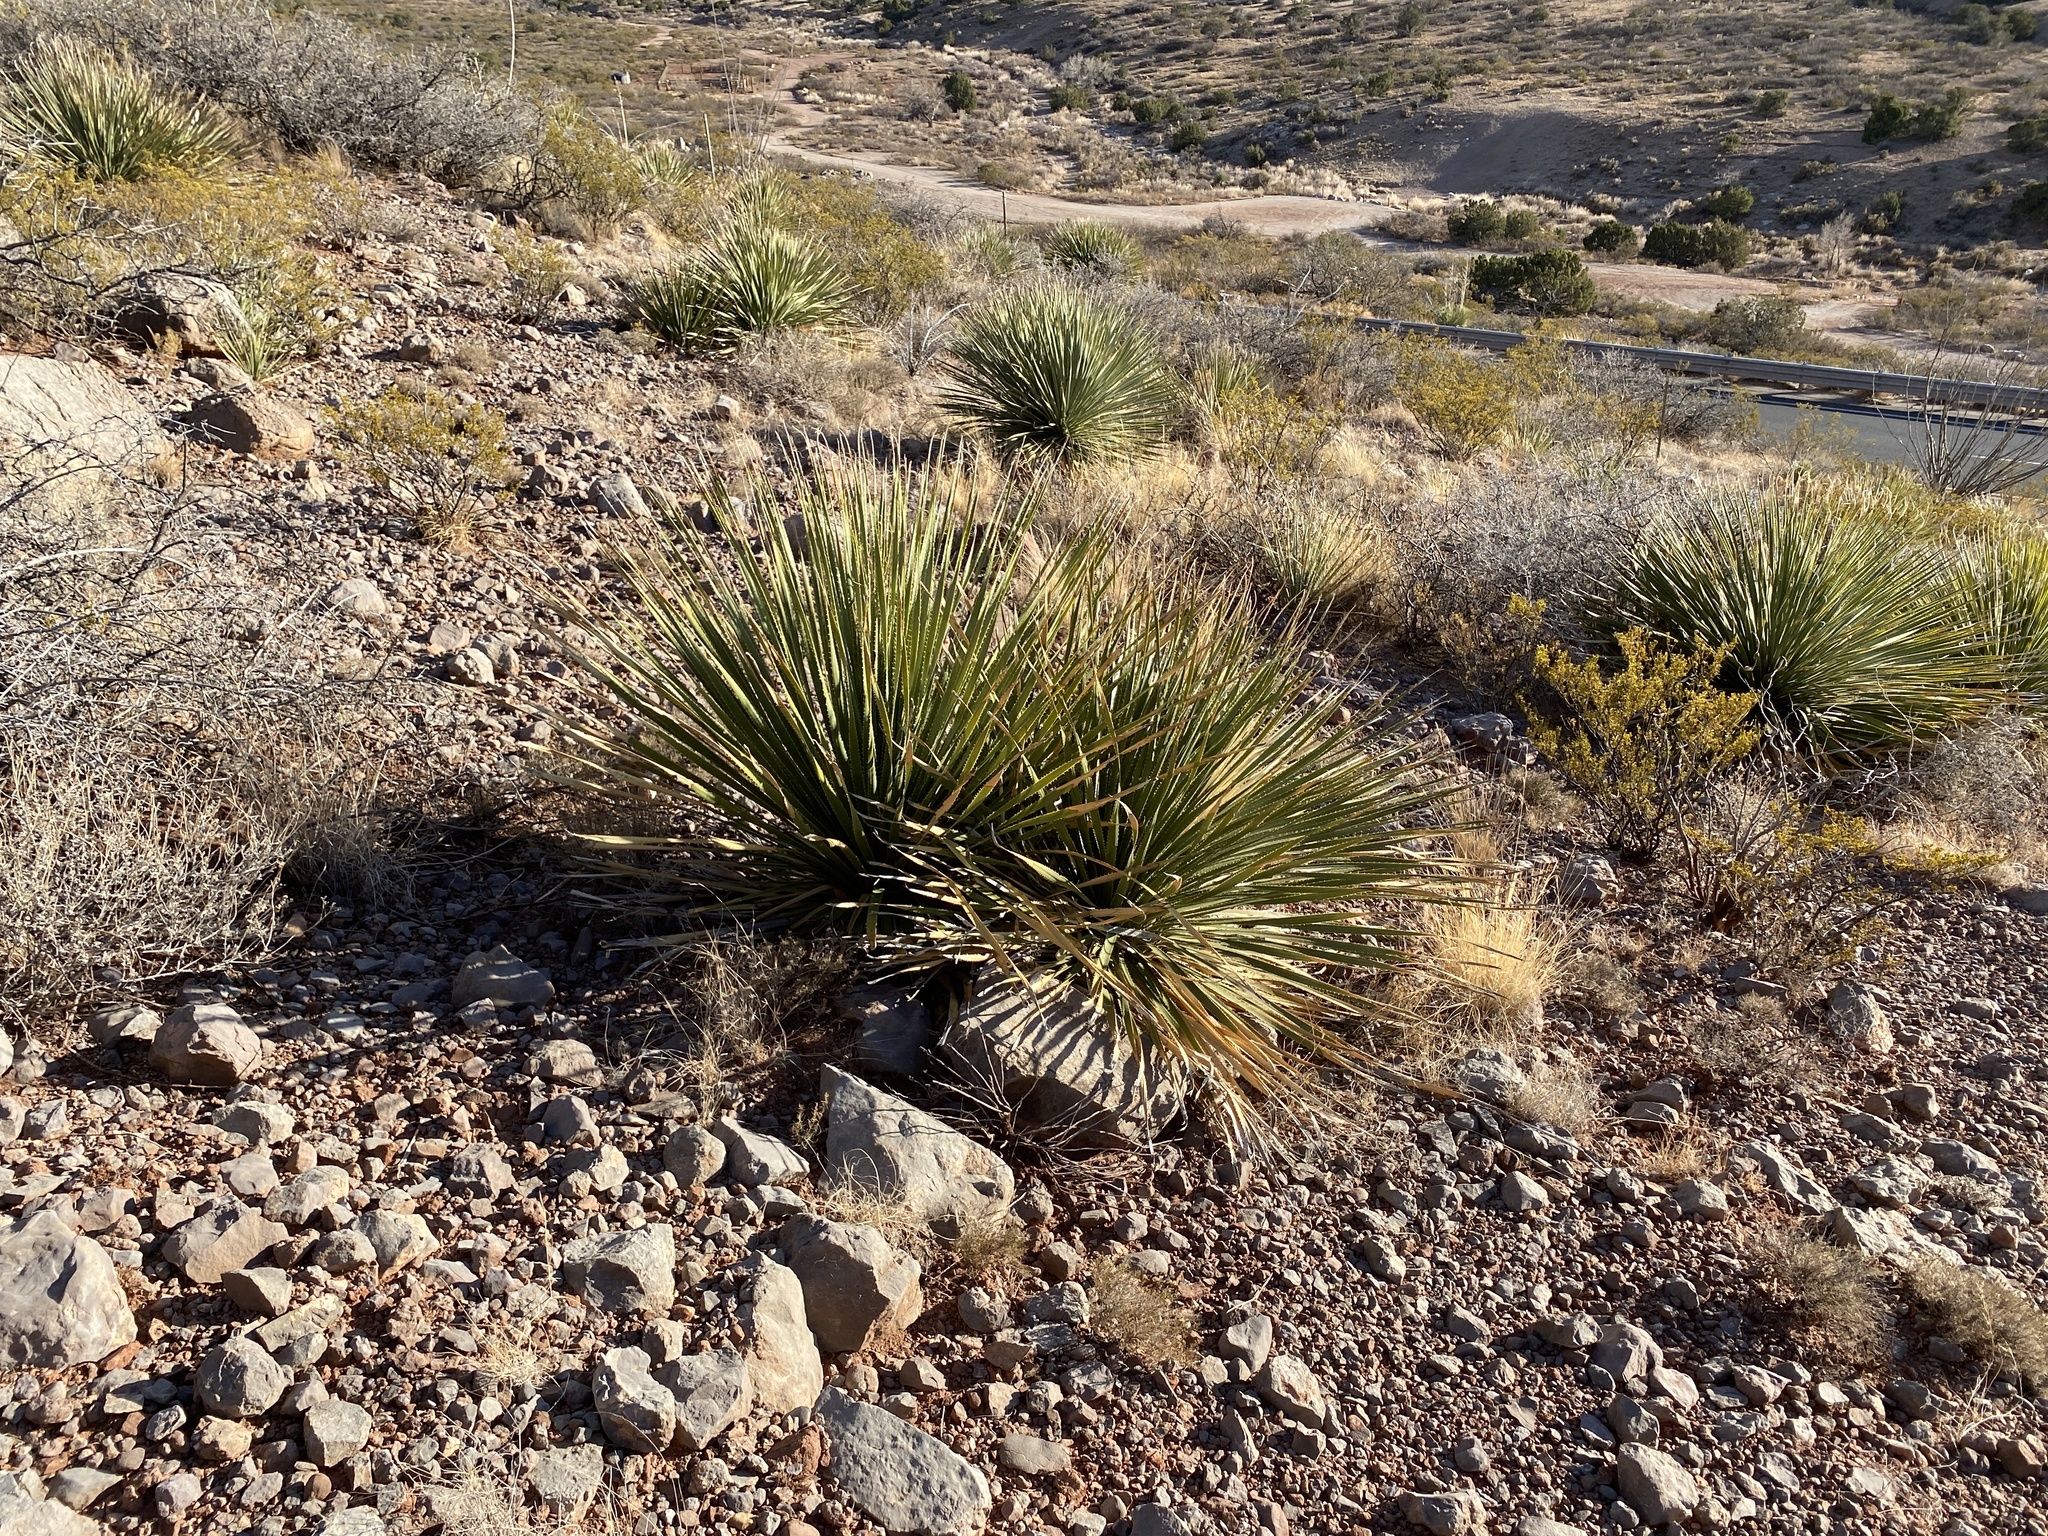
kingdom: Plantae
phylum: Tracheophyta
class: Liliopsida
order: Asparagales
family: Asparagaceae
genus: Dasylirion
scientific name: Dasylirion wheeleri
